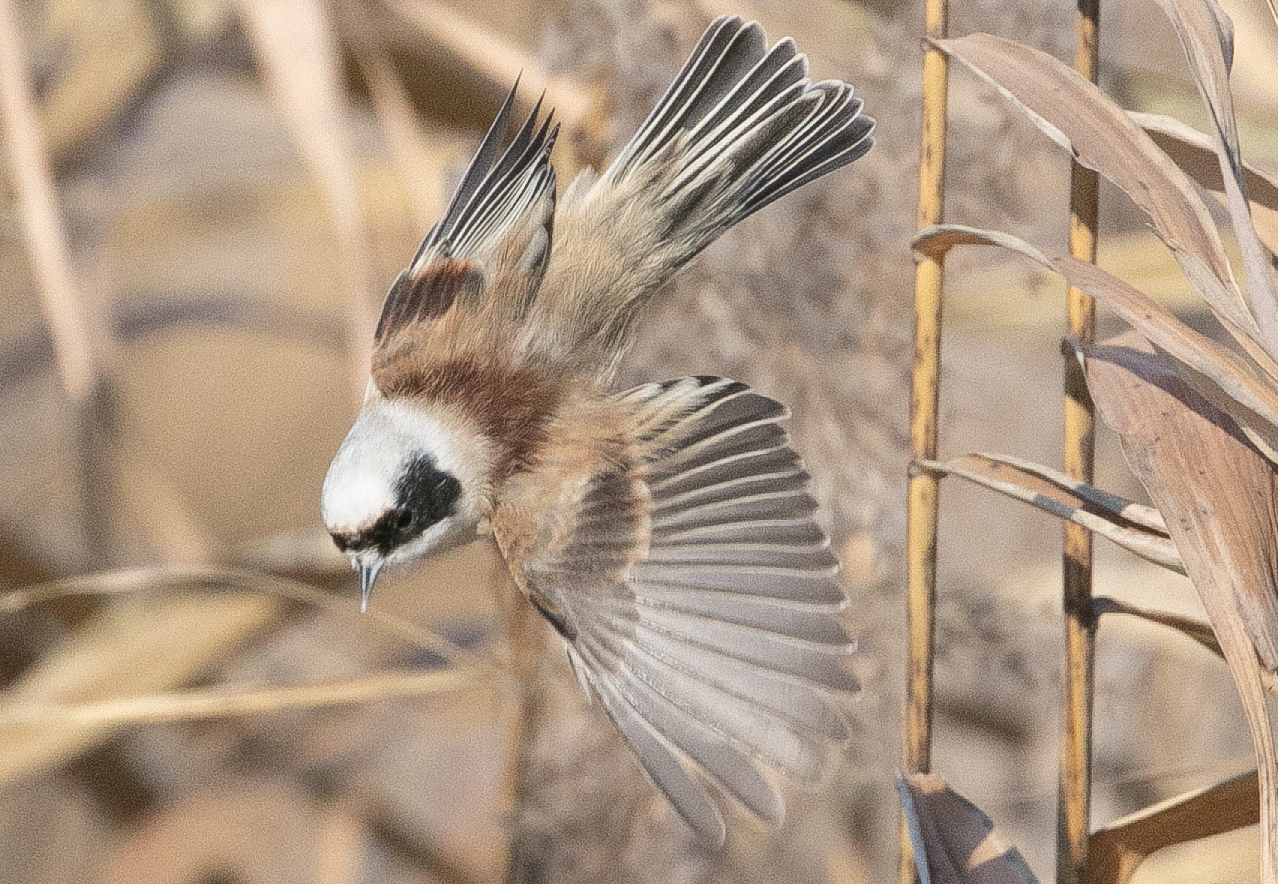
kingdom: Animalia
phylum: Chordata
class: Aves
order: Passeriformes
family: Remizidae
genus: Remiz
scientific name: Remiz pendulinus
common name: Eurasian penduline tit
